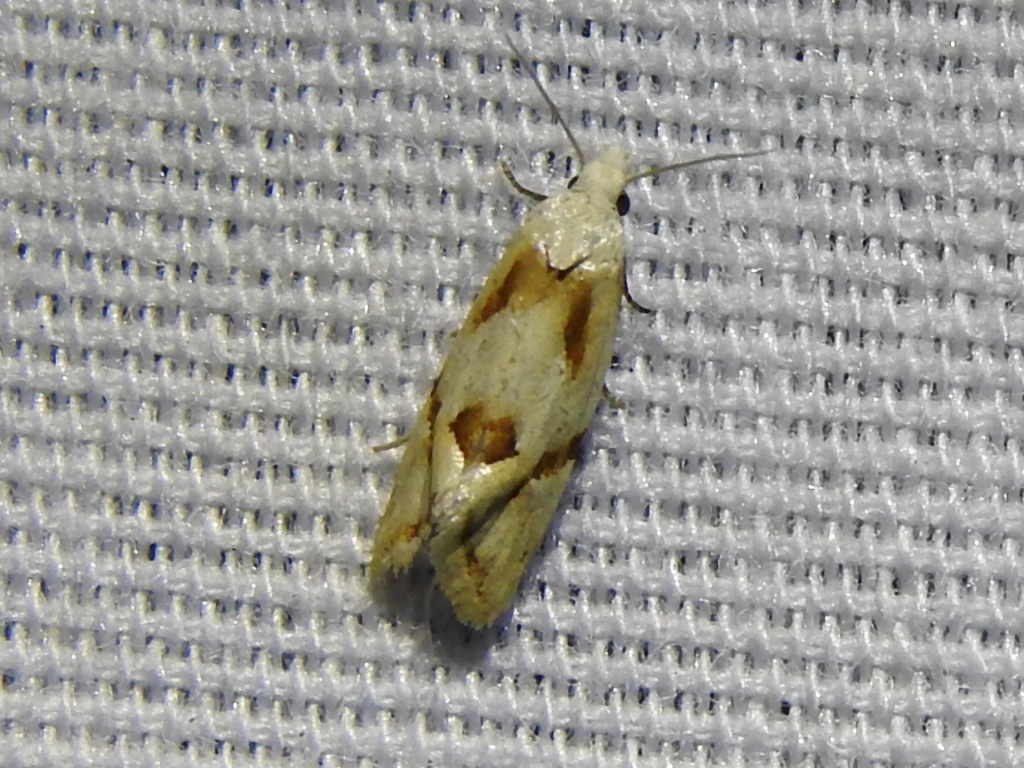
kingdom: Animalia
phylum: Arthropoda
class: Insecta
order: Lepidoptera
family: Tortricidae
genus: Aethes
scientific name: Aethes seriatana
